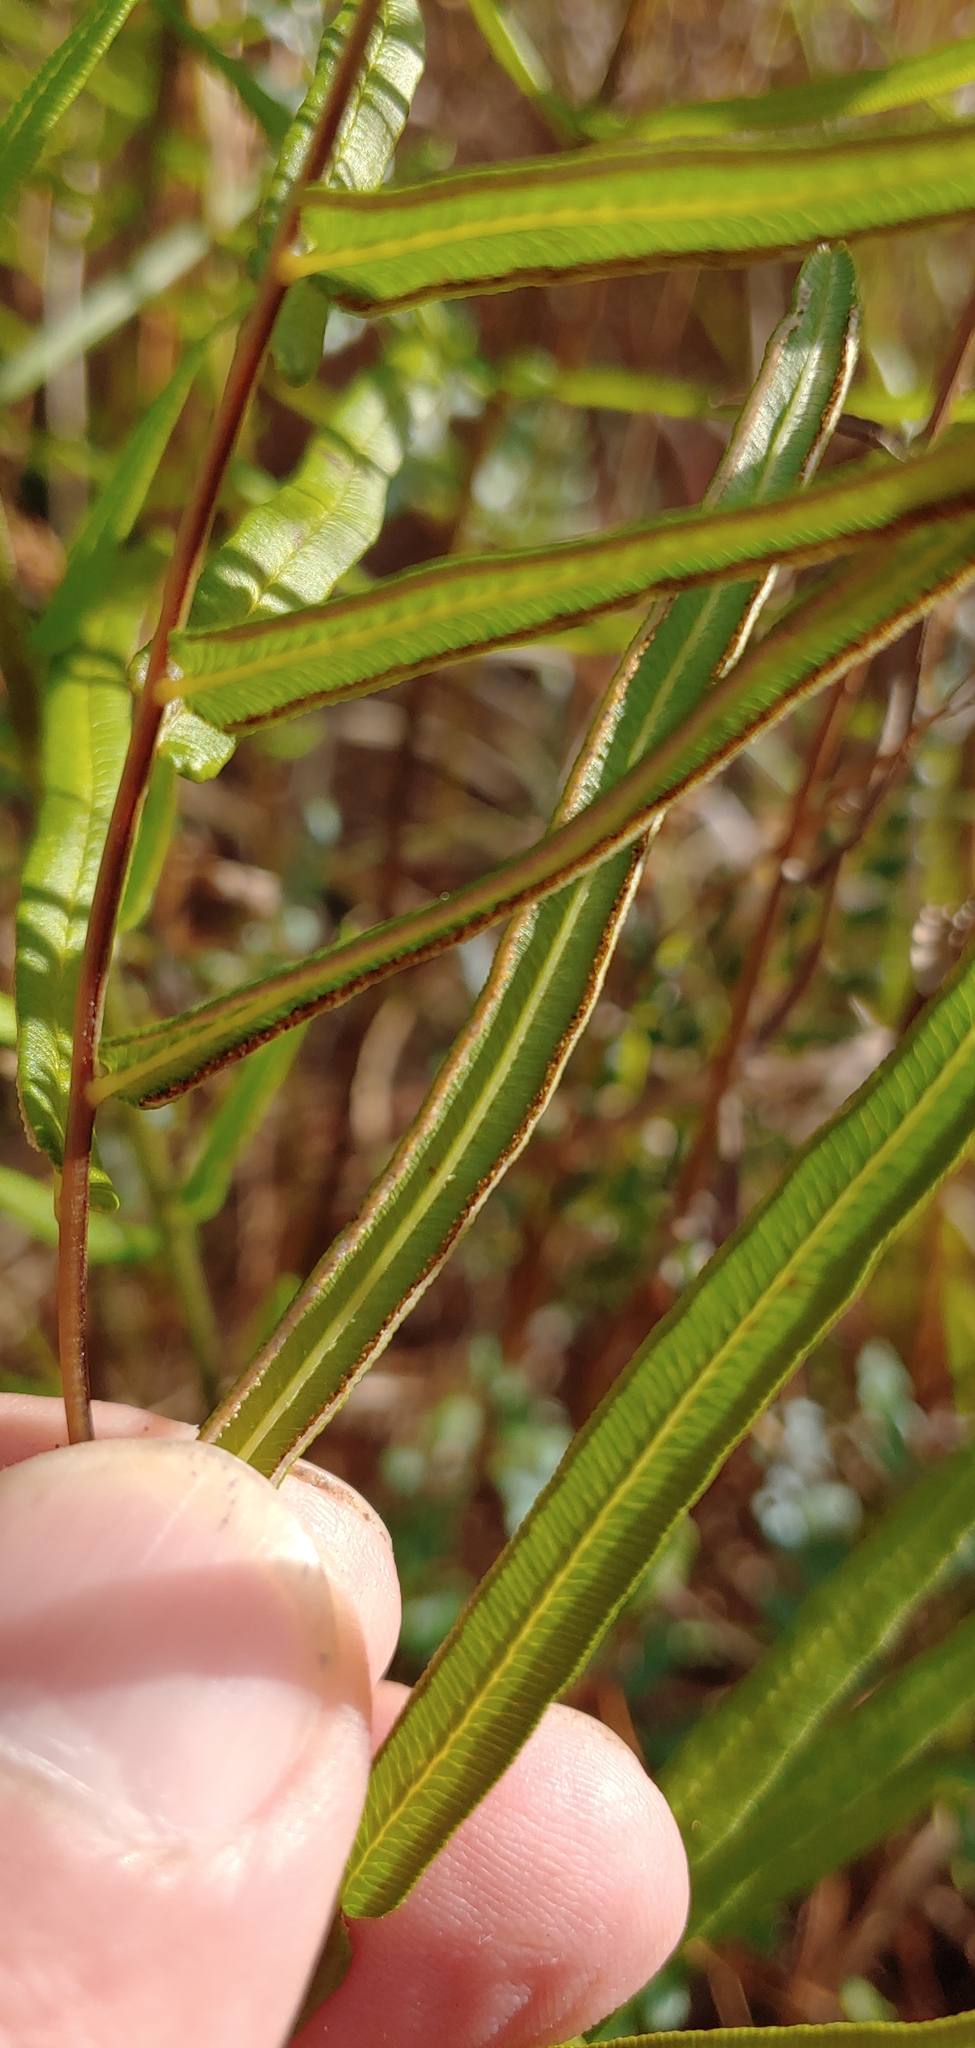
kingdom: Plantae
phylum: Tracheophyta
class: Polypodiopsida
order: Polypodiales
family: Pteridaceae
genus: Pteris
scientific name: Pteris longifolia
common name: Longleaf brake
